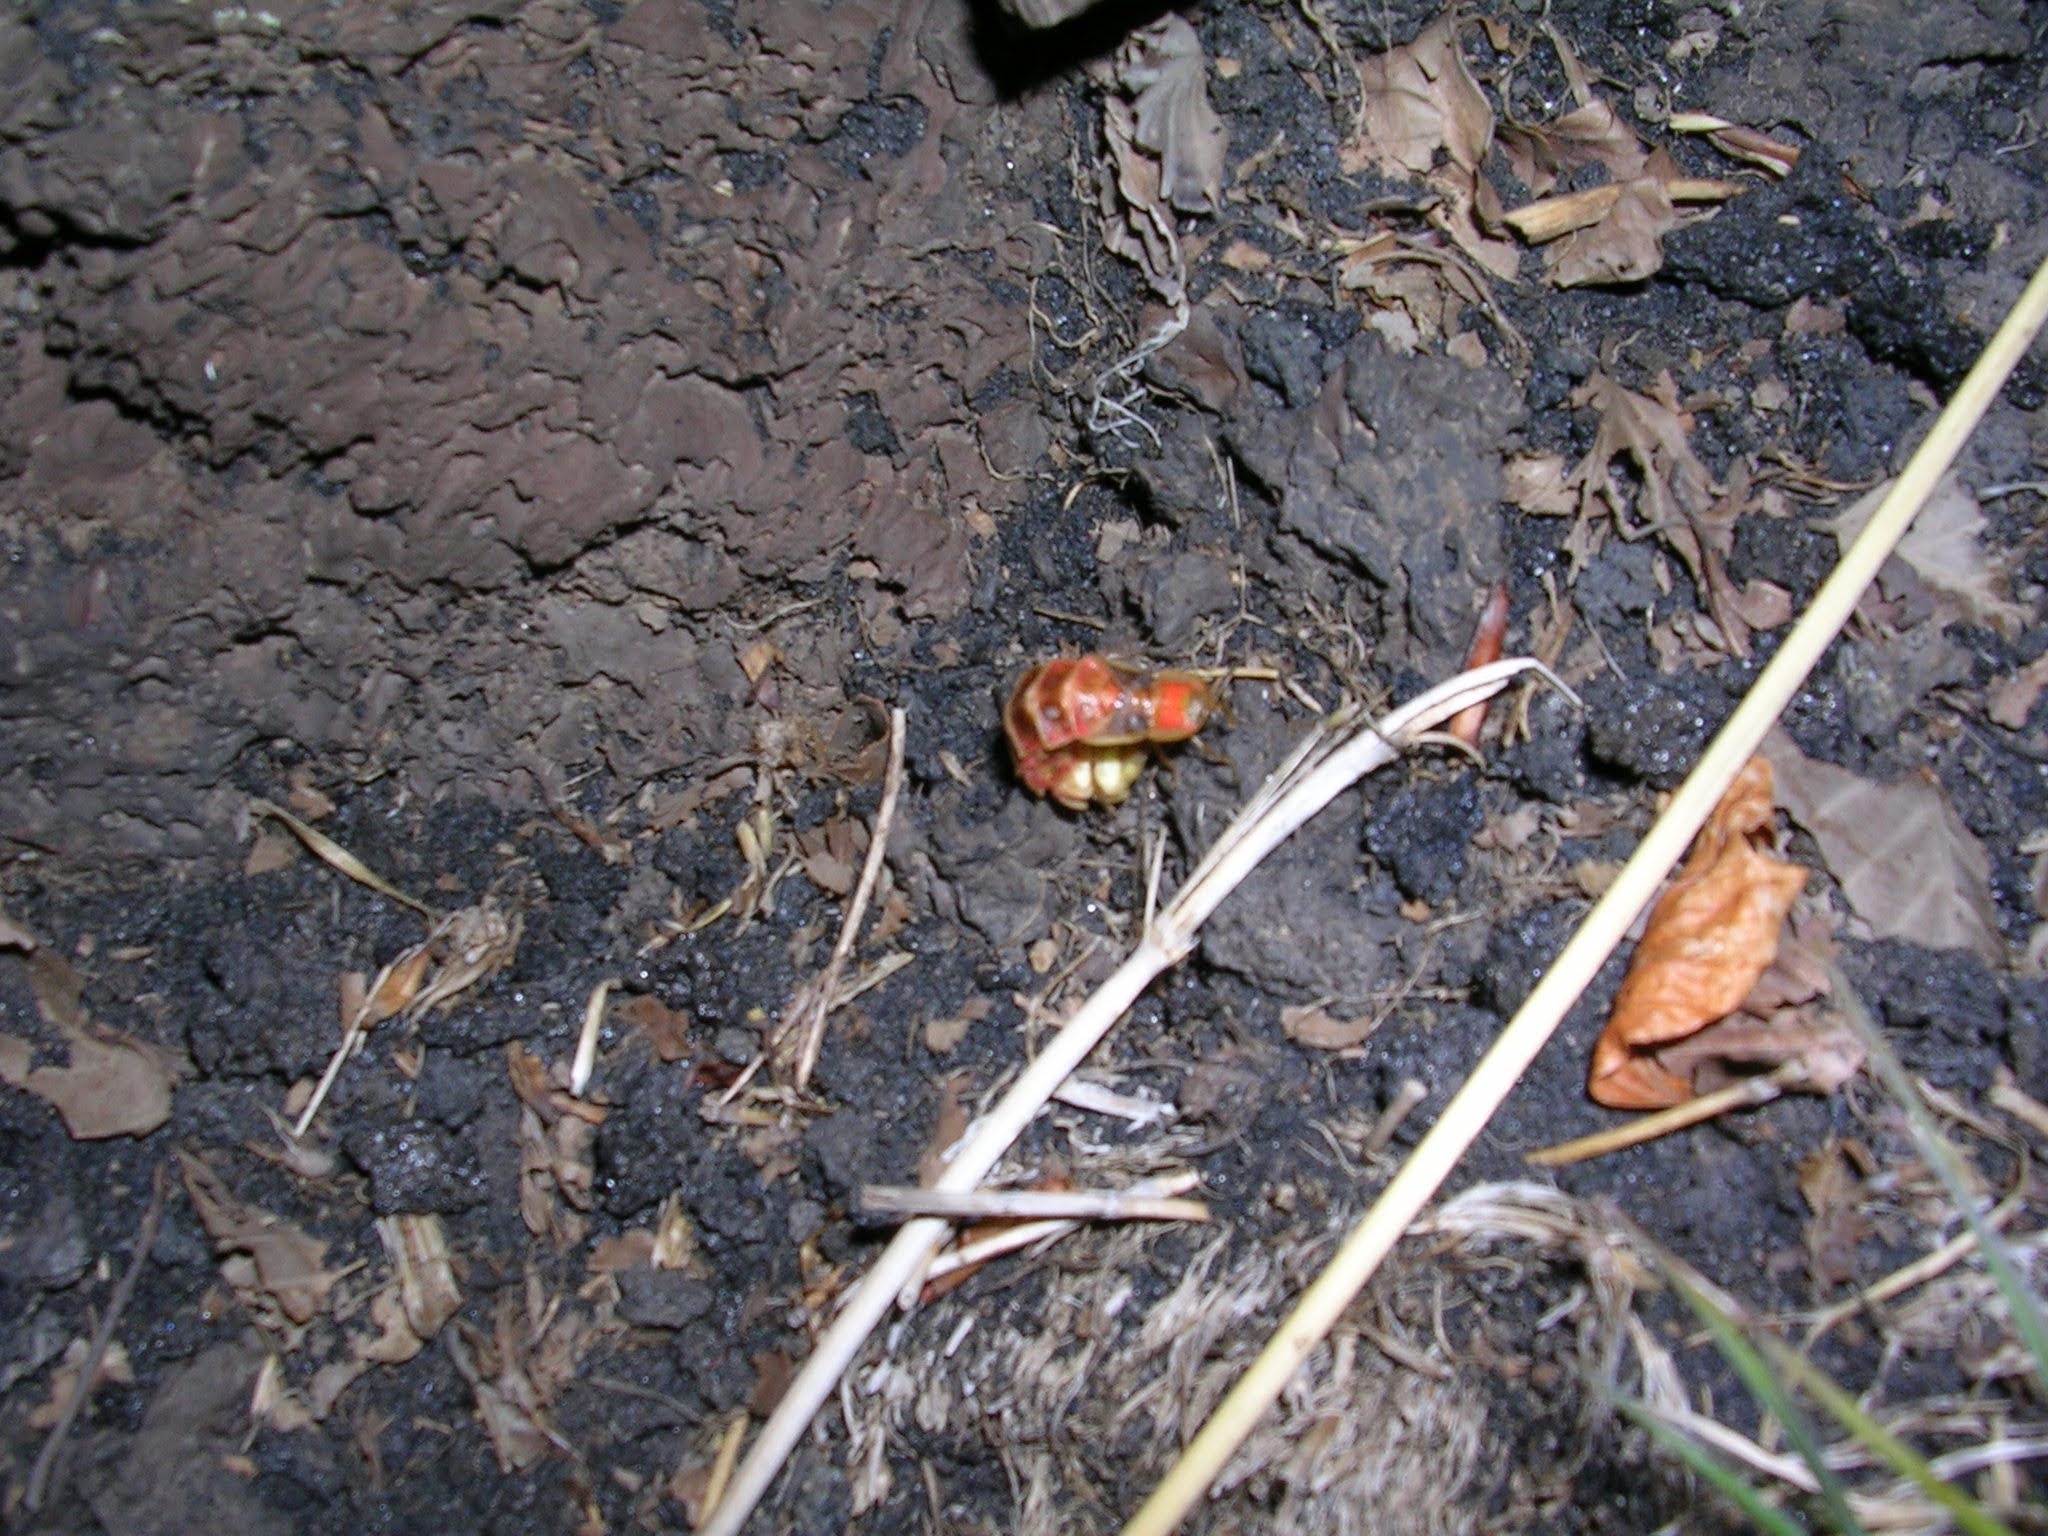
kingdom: Animalia
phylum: Arthropoda
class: Insecta
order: Coleoptera
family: Lampyridae
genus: Lampyris
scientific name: Lampyris ambigena
